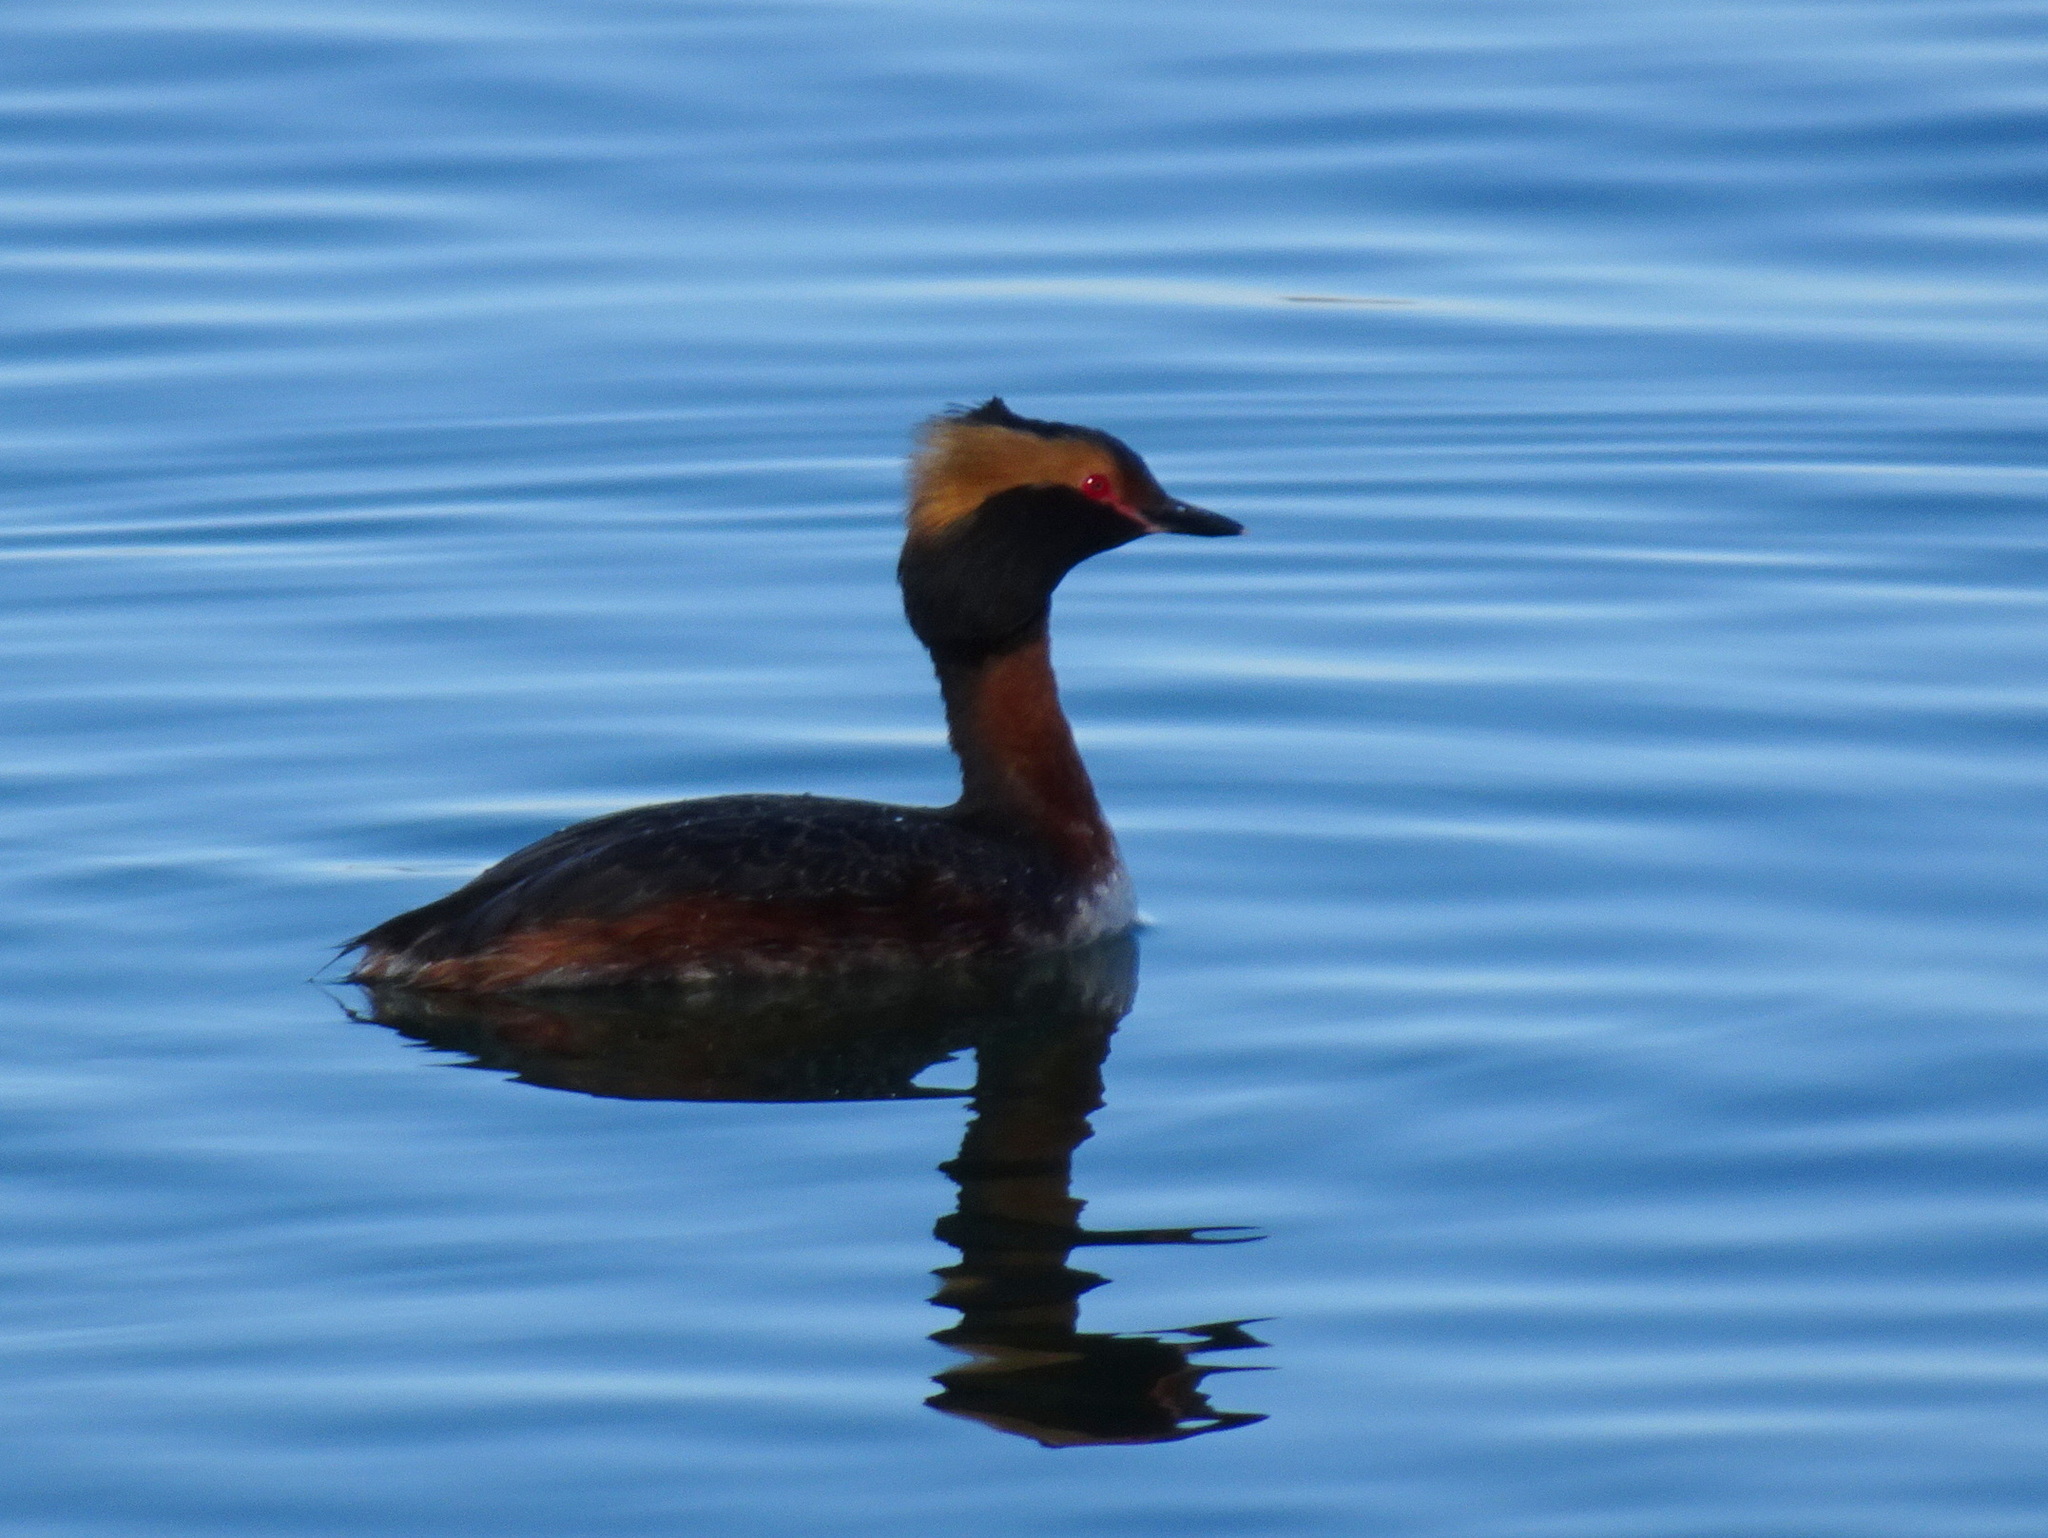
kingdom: Animalia
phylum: Chordata
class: Aves
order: Podicipediformes
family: Podicipedidae
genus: Podiceps
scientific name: Podiceps auritus
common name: Horned grebe
